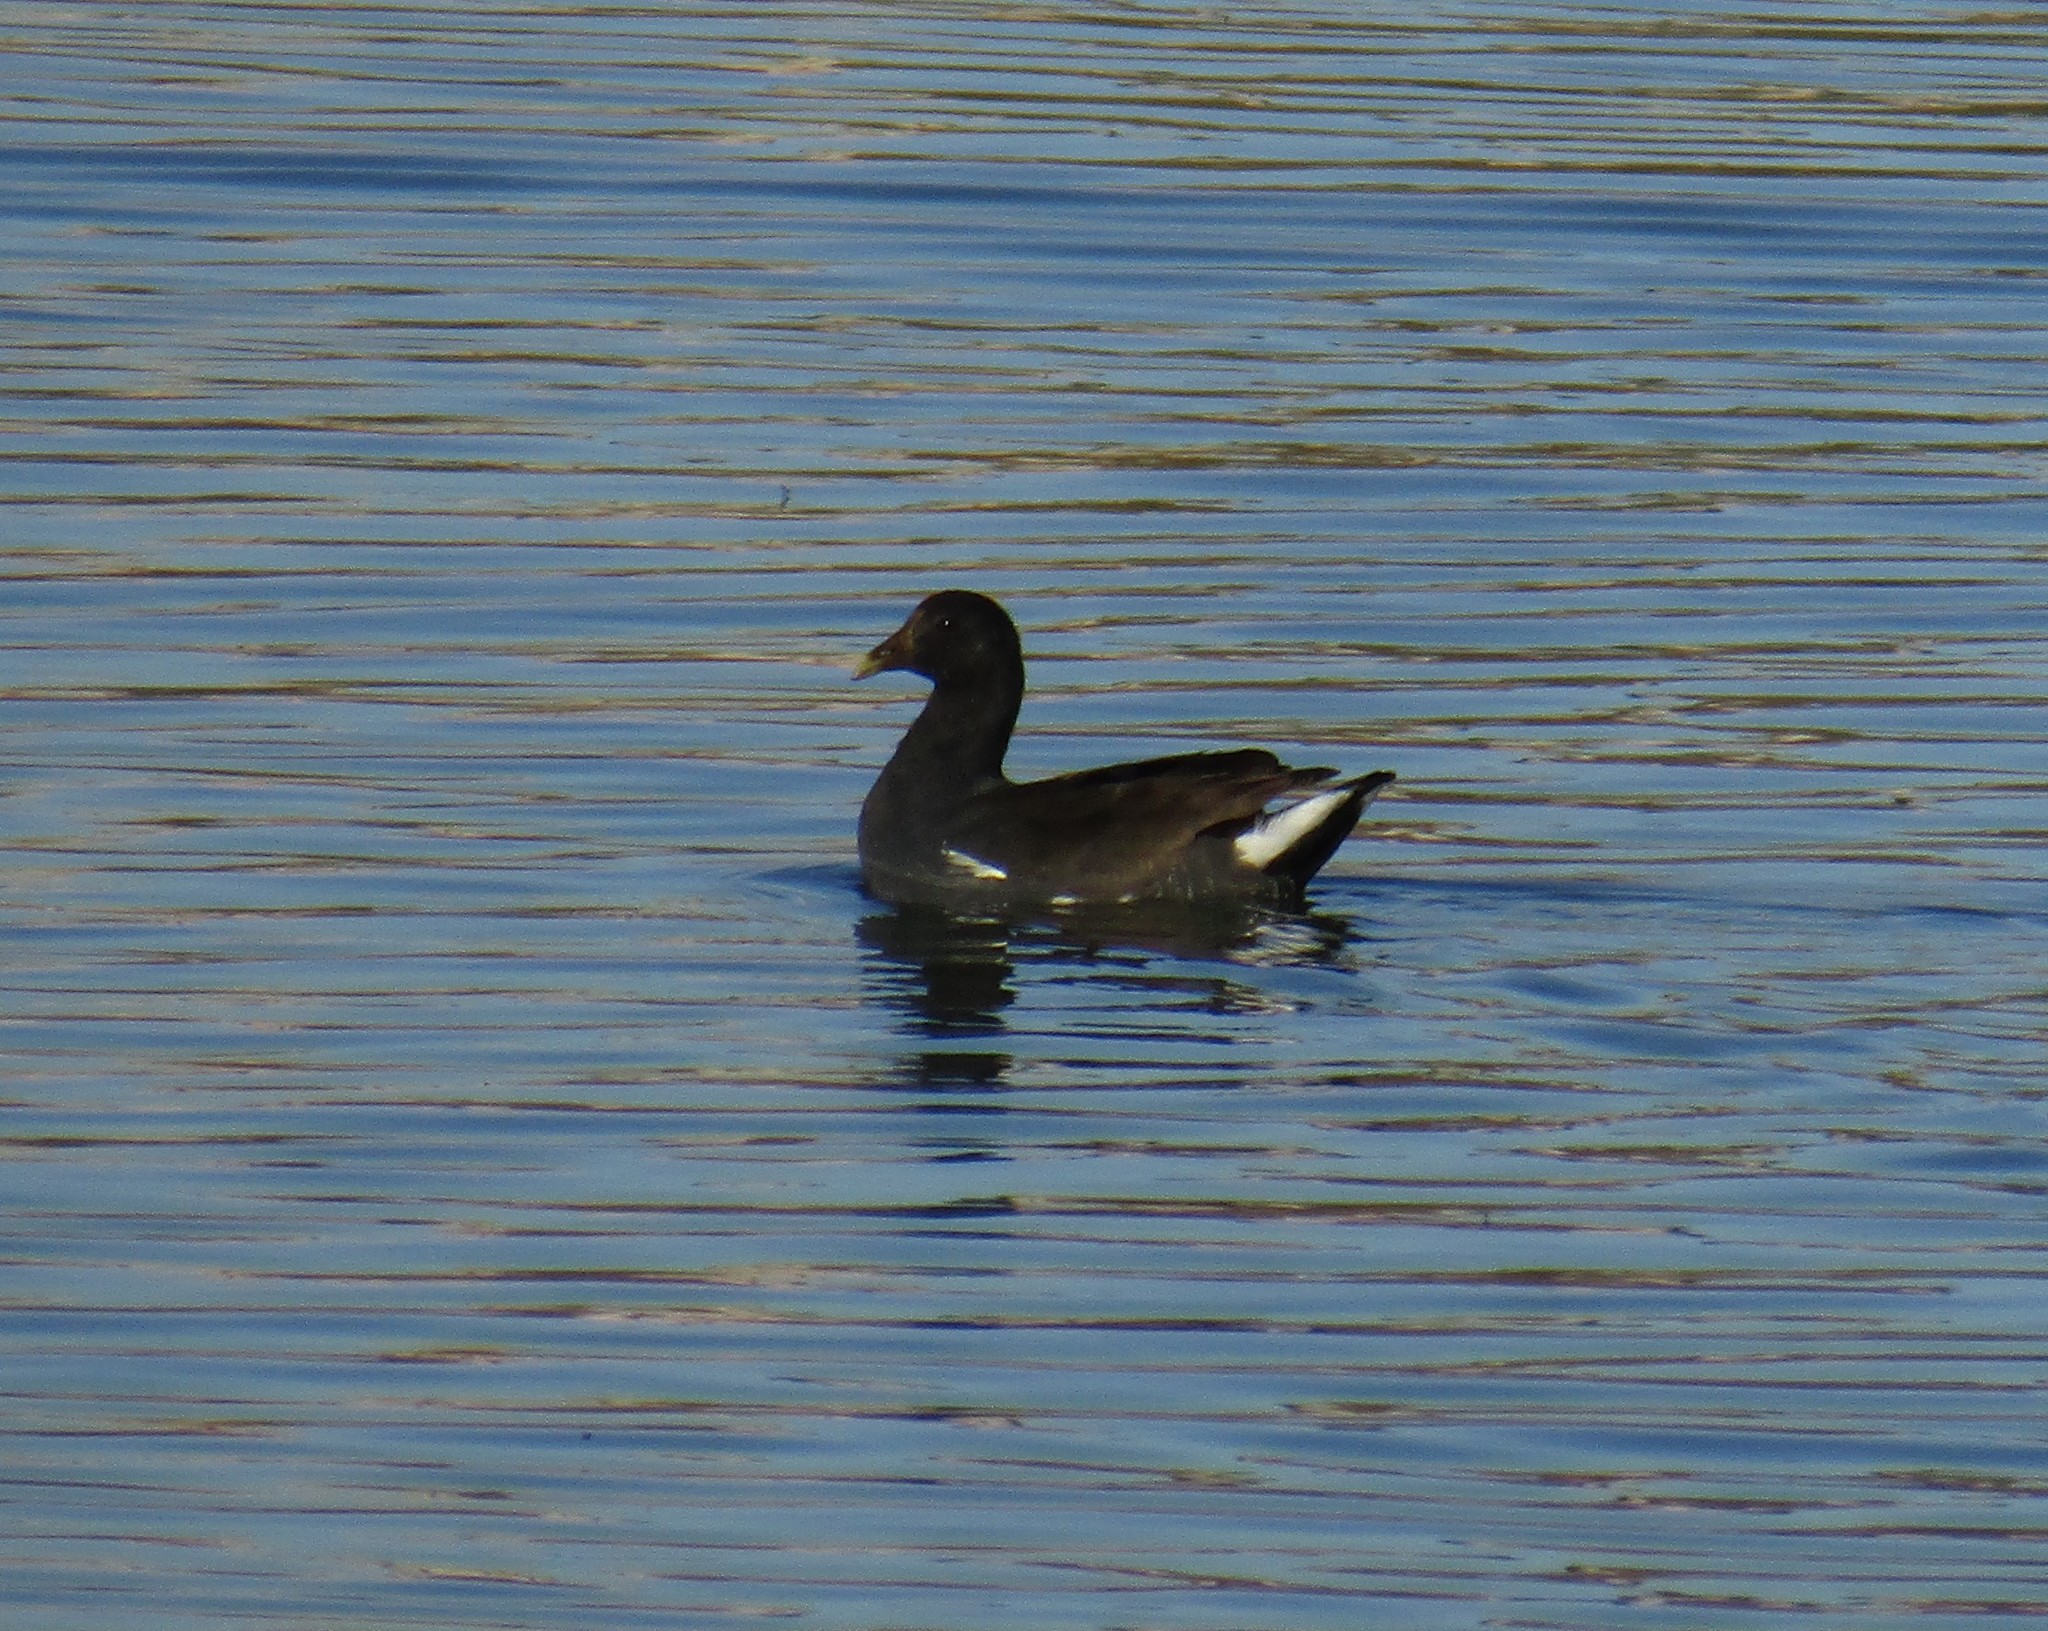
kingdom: Animalia
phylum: Chordata
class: Aves
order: Gruiformes
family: Rallidae
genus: Gallinula
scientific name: Gallinula chloropus
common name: Common moorhen
